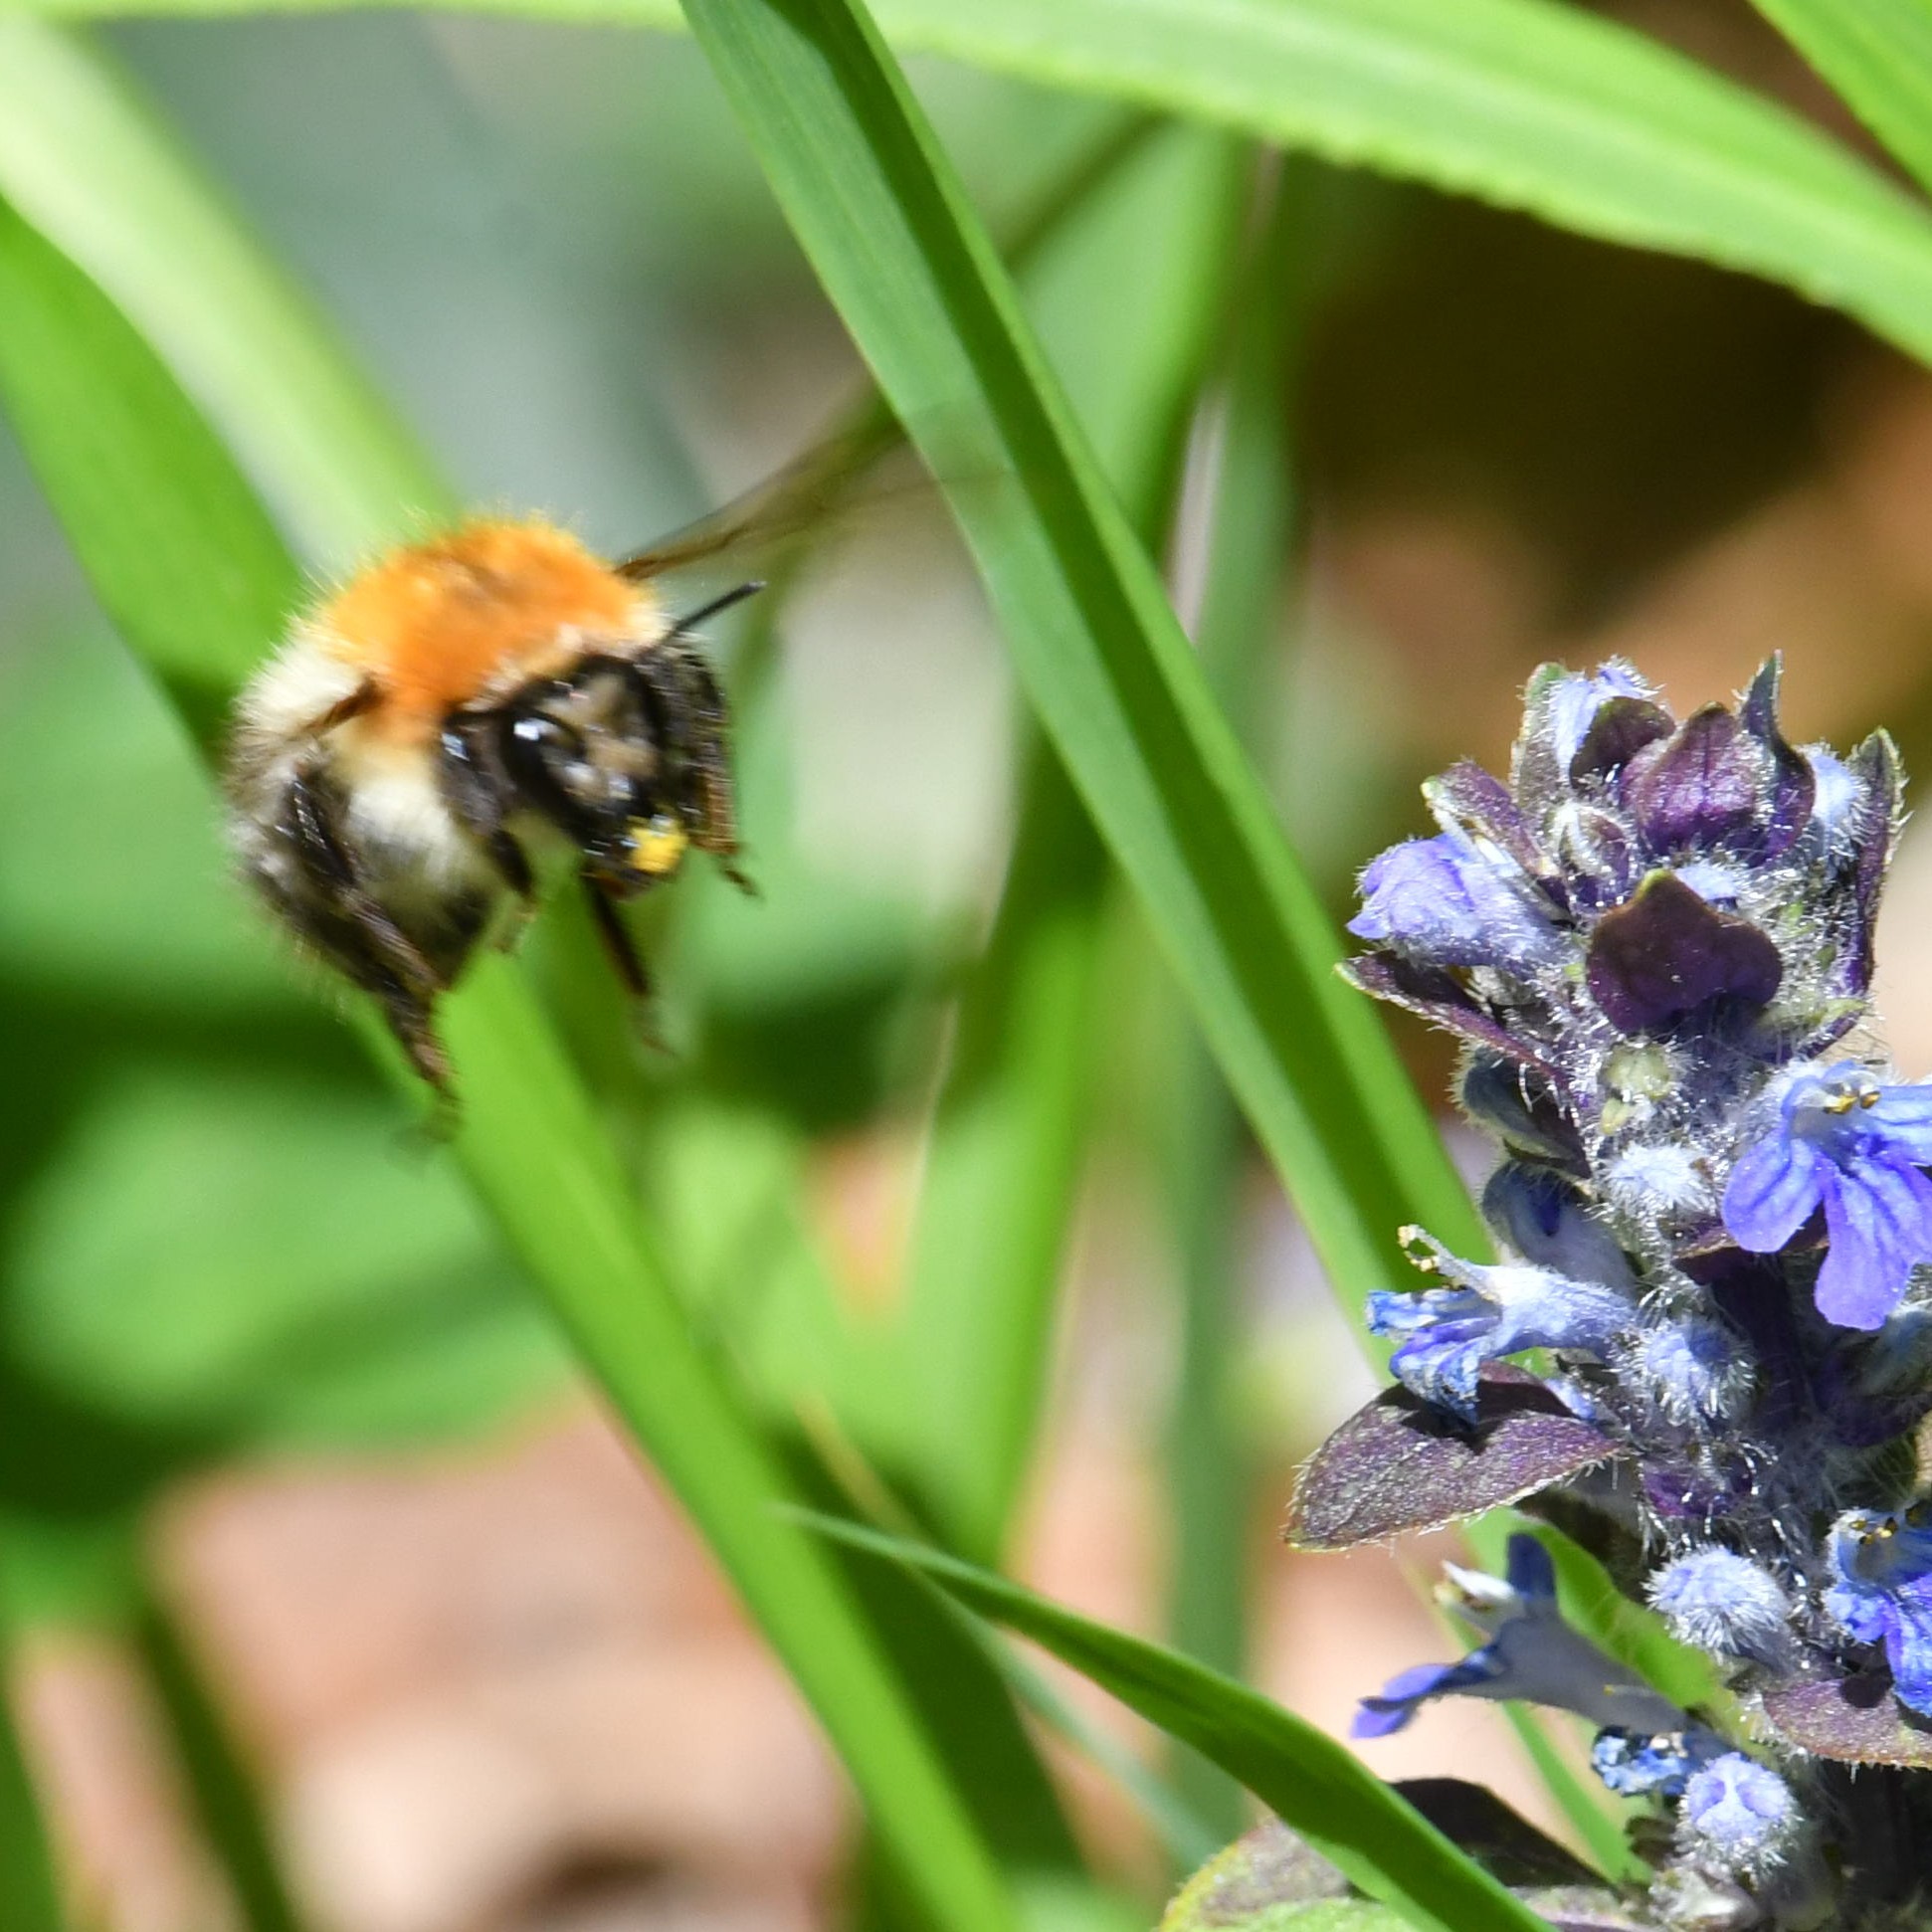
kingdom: Animalia
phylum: Arthropoda
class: Insecta
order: Hymenoptera
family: Apidae
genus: Bombus
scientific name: Bombus pascuorum
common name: Common carder bee
